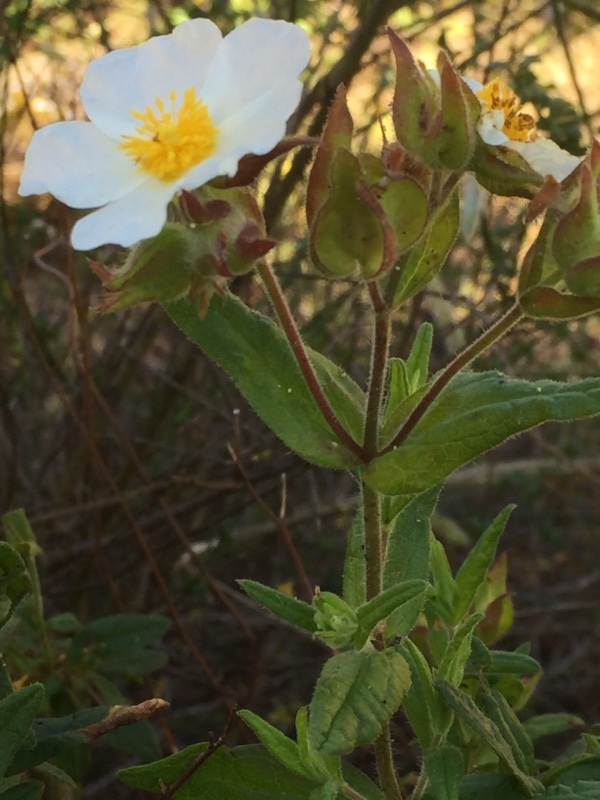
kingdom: Plantae
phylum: Tracheophyta
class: Magnoliopsida
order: Malvales
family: Cistaceae
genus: Cistus
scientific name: Cistus inflatus
